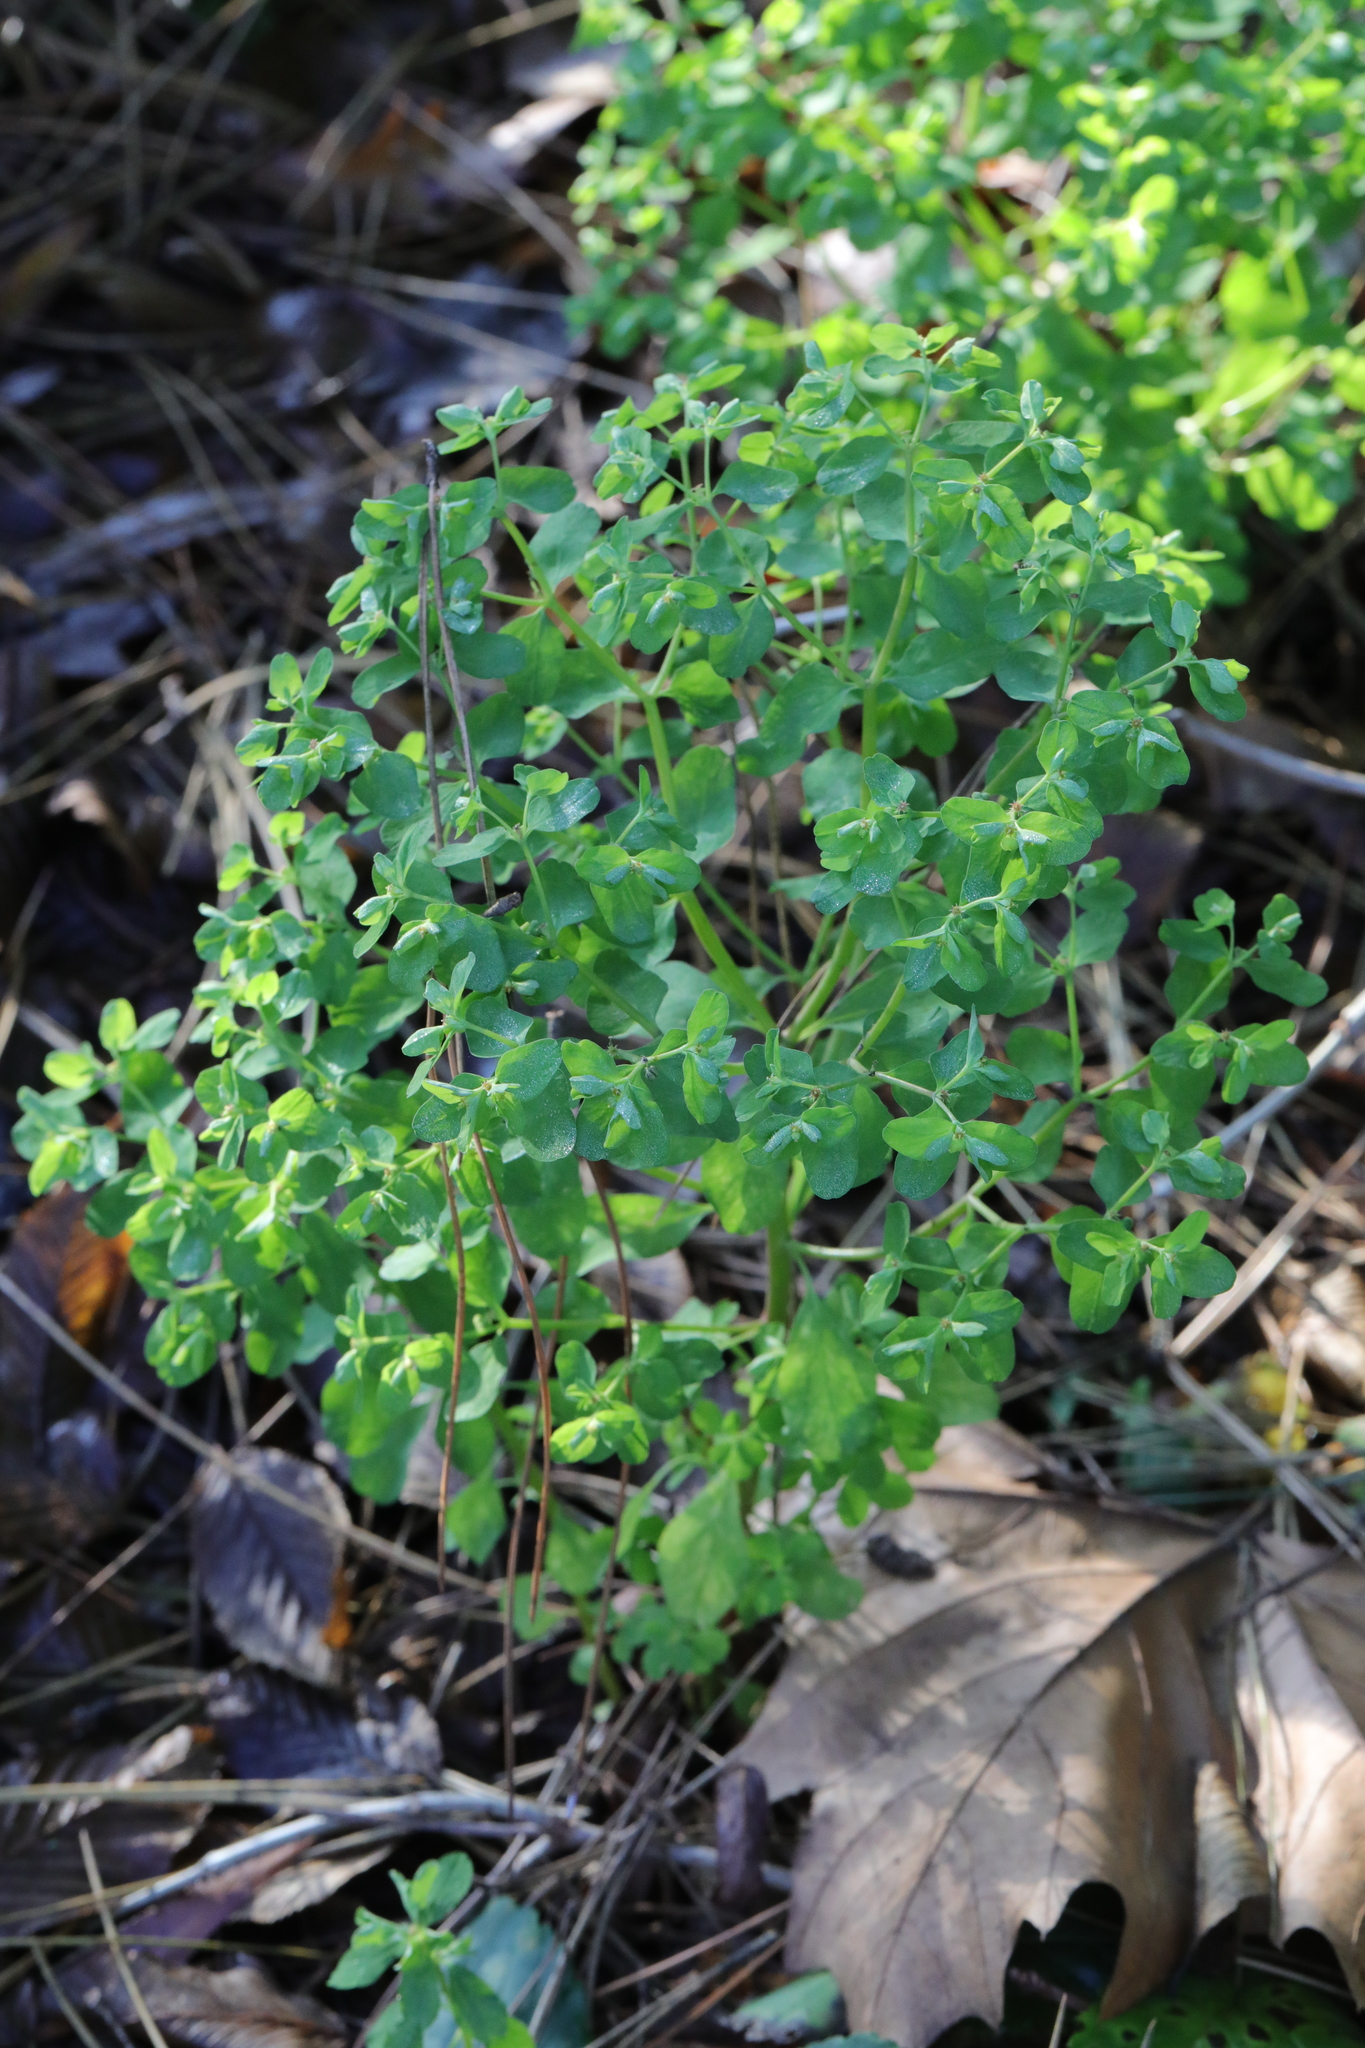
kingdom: Plantae
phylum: Tracheophyta
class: Magnoliopsida
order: Malpighiales
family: Euphorbiaceae
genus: Euphorbia
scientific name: Euphorbia peplus
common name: Petty spurge
